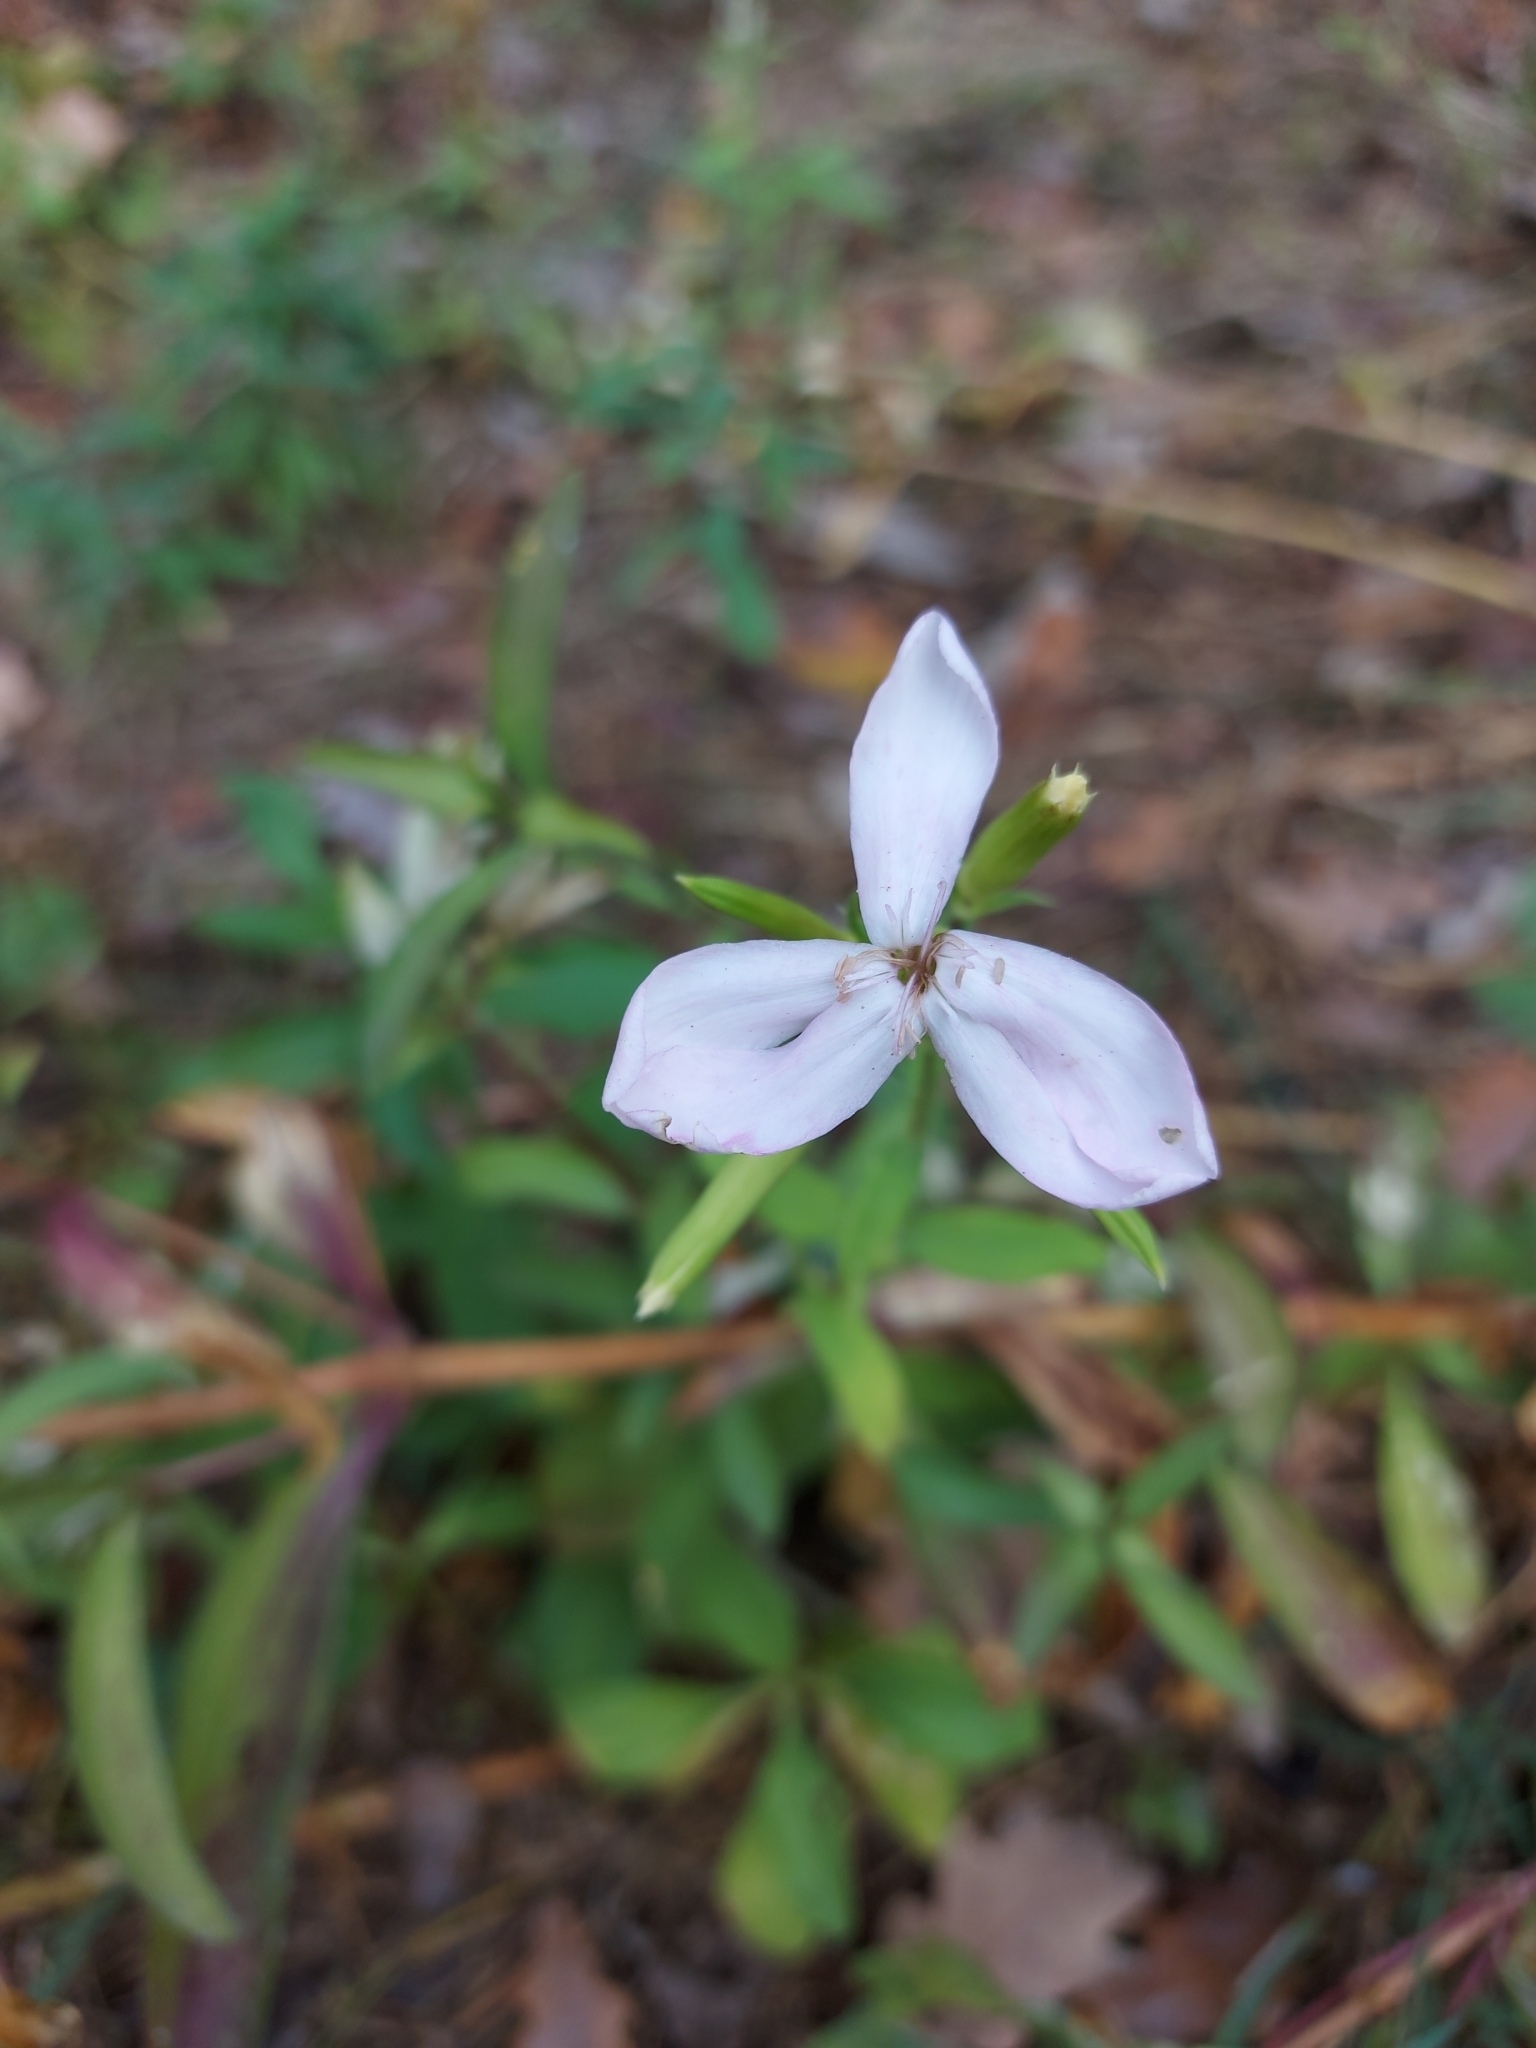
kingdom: Plantae
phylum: Tracheophyta
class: Magnoliopsida
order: Caryophyllales
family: Caryophyllaceae
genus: Saponaria
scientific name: Saponaria officinalis
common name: Soapwort
